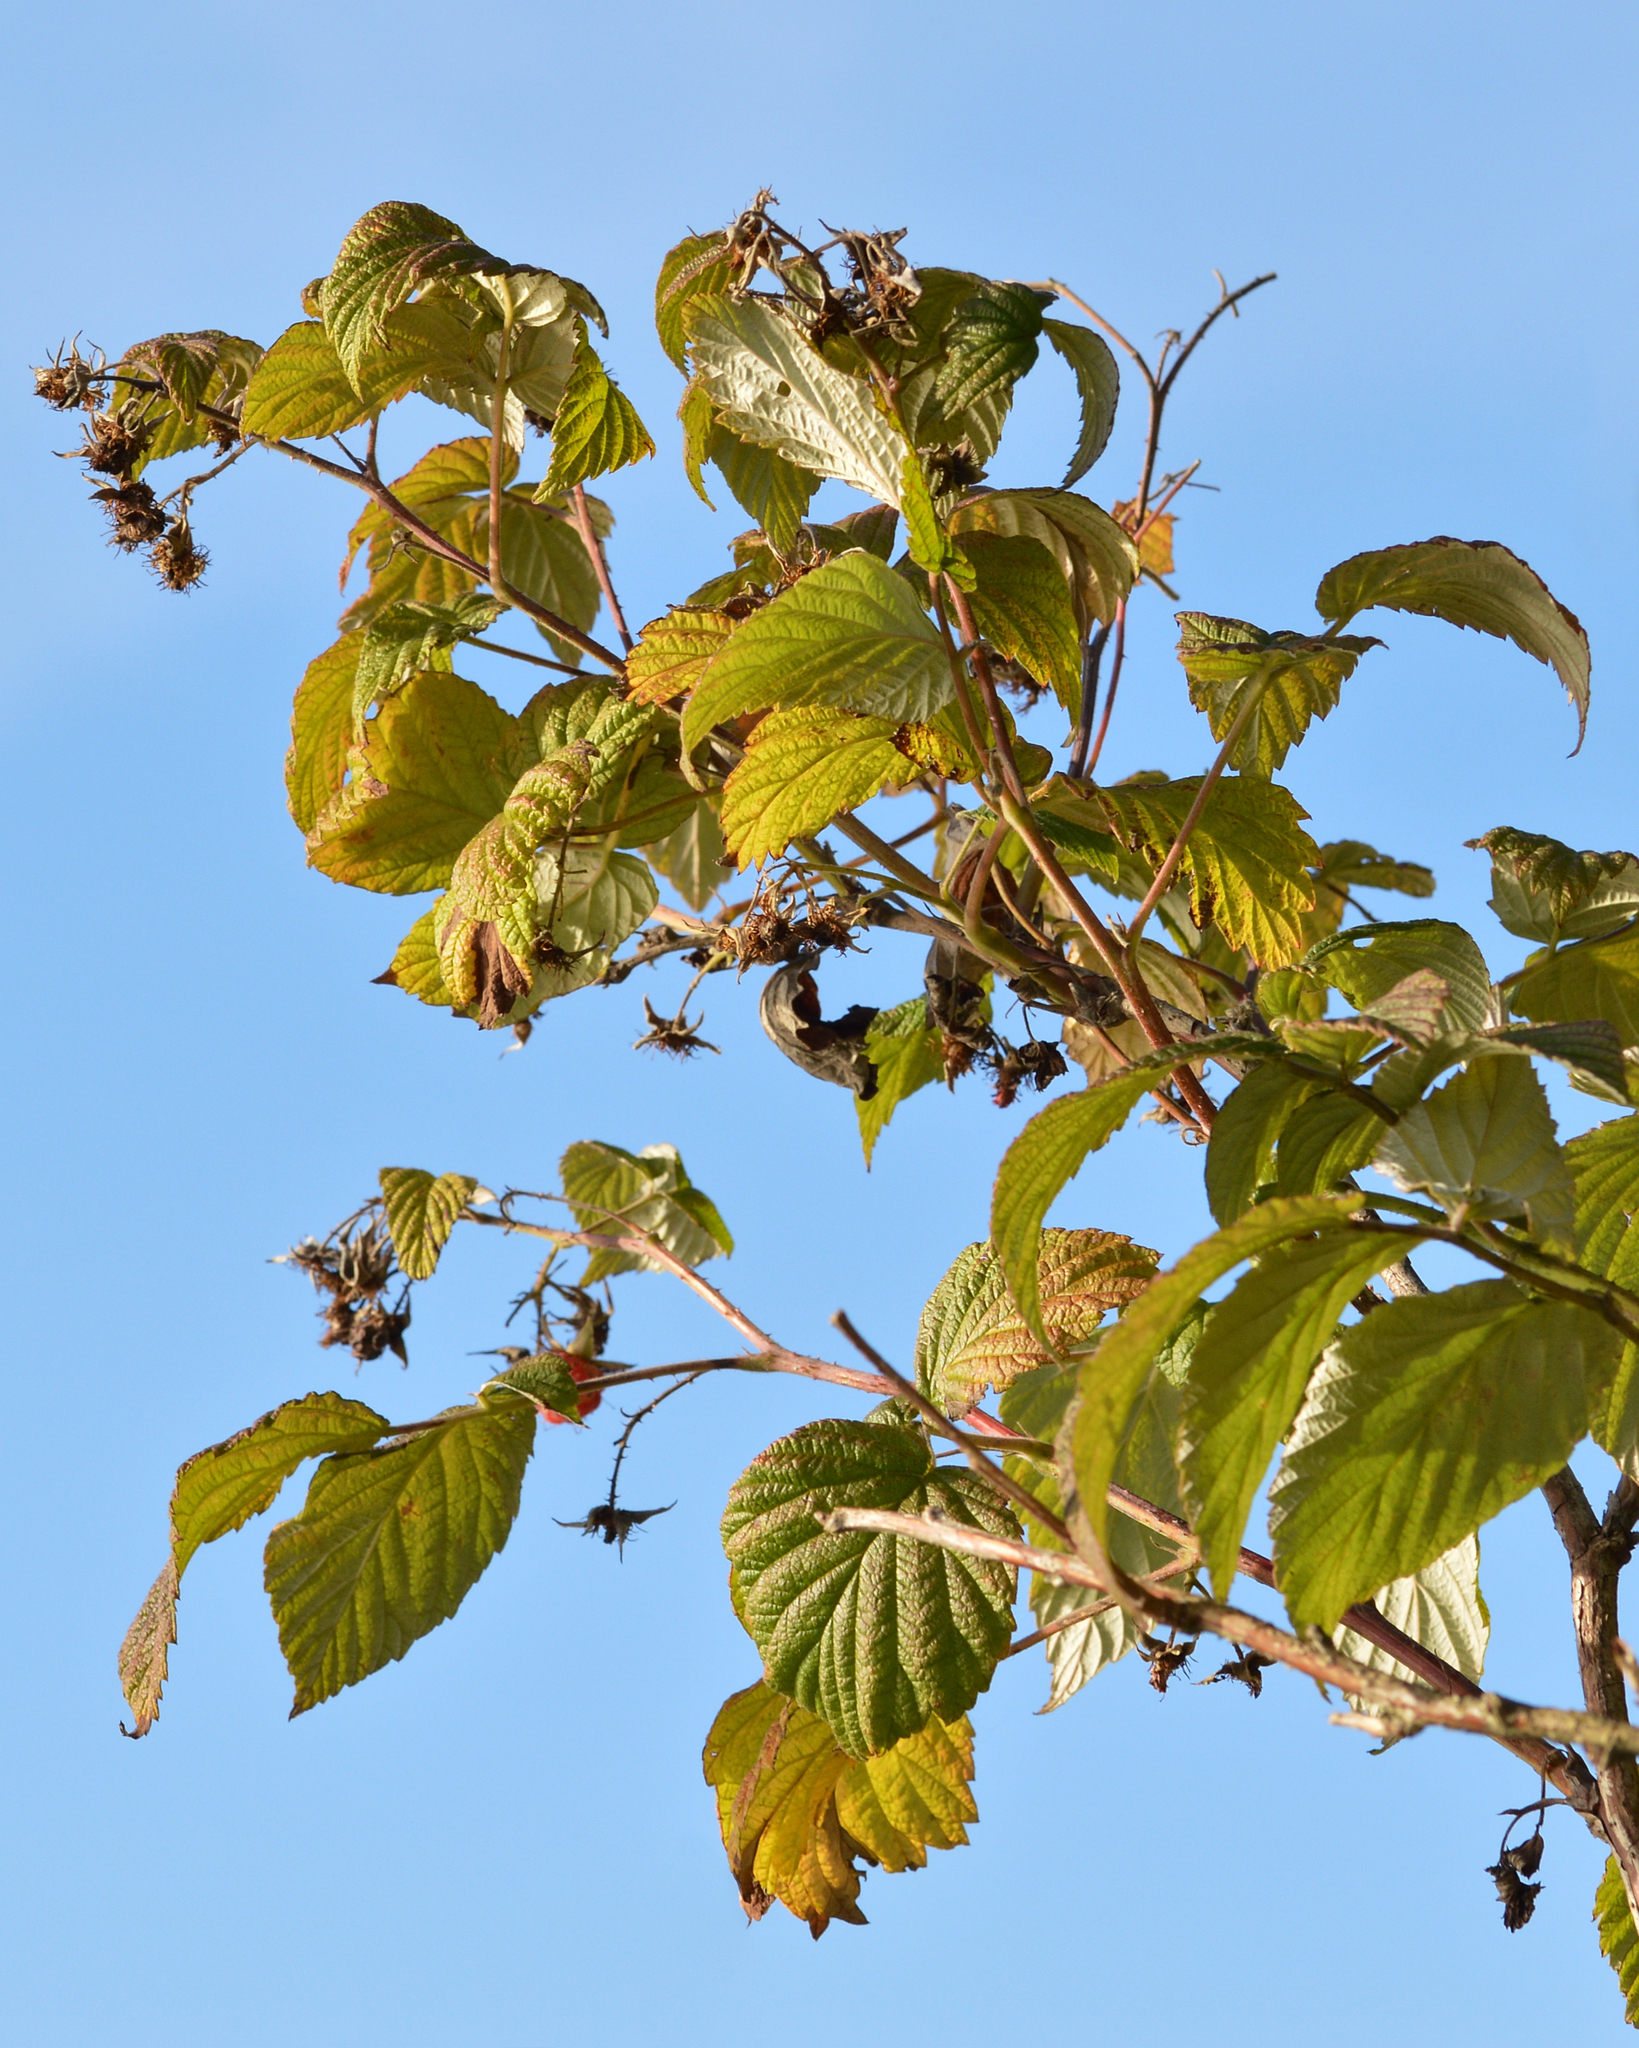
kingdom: Plantae
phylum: Tracheophyta
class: Magnoliopsida
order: Rosales
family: Rosaceae
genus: Rubus
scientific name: Rubus idaeus
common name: Raspberry
